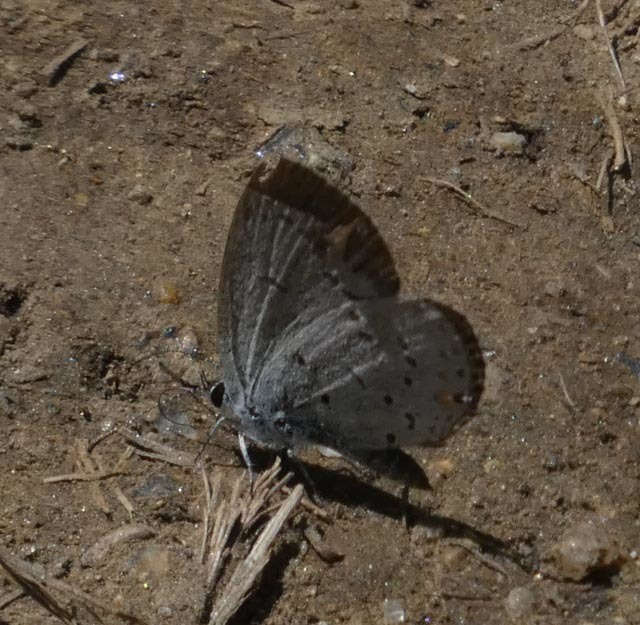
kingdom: Animalia
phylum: Arthropoda
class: Insecta
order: Lepidoptera
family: Lycaenidae
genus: Elkalyce
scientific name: Elkalyce comyntas
